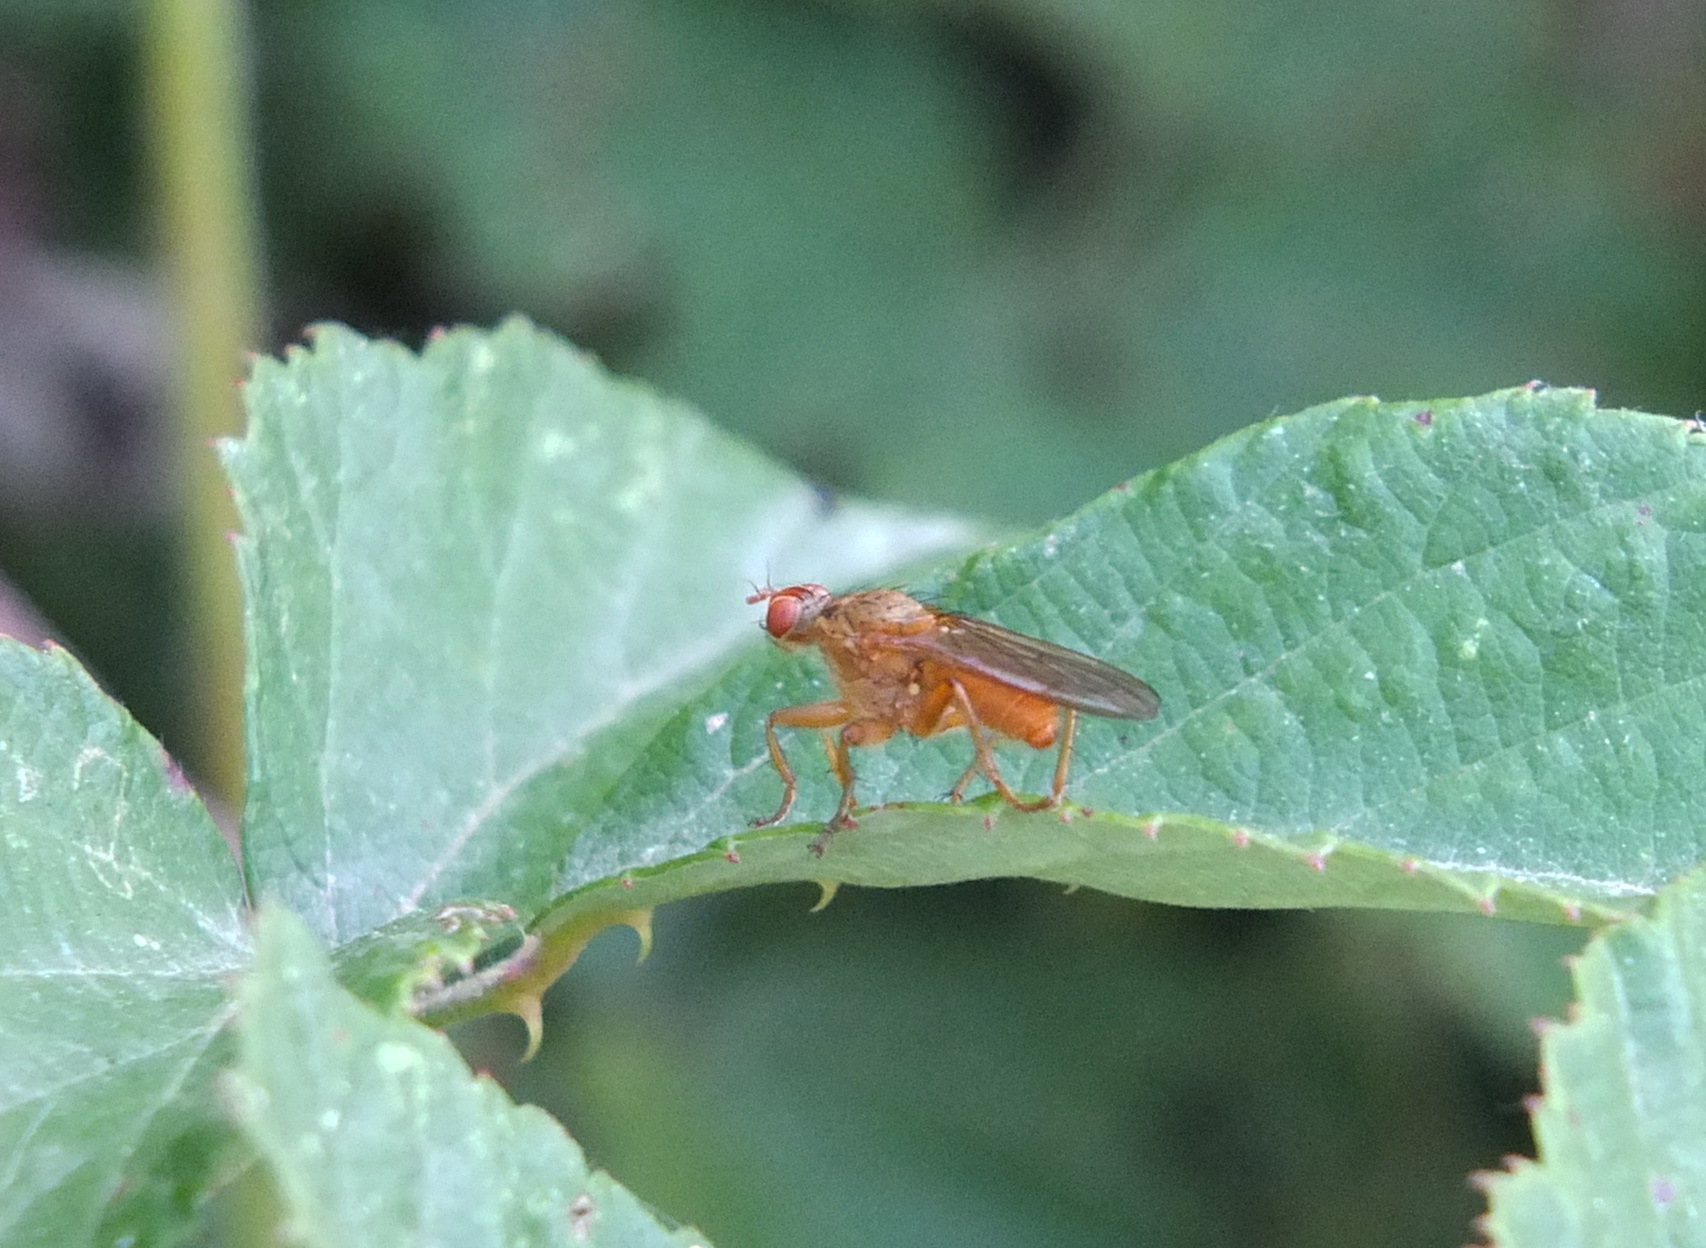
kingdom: Animalia
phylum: Arthropoda
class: Insecta
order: Diptera
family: Scathophagidae
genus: Scathophaga
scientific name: Scathophaga stercoraria
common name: Yellow dung fly
